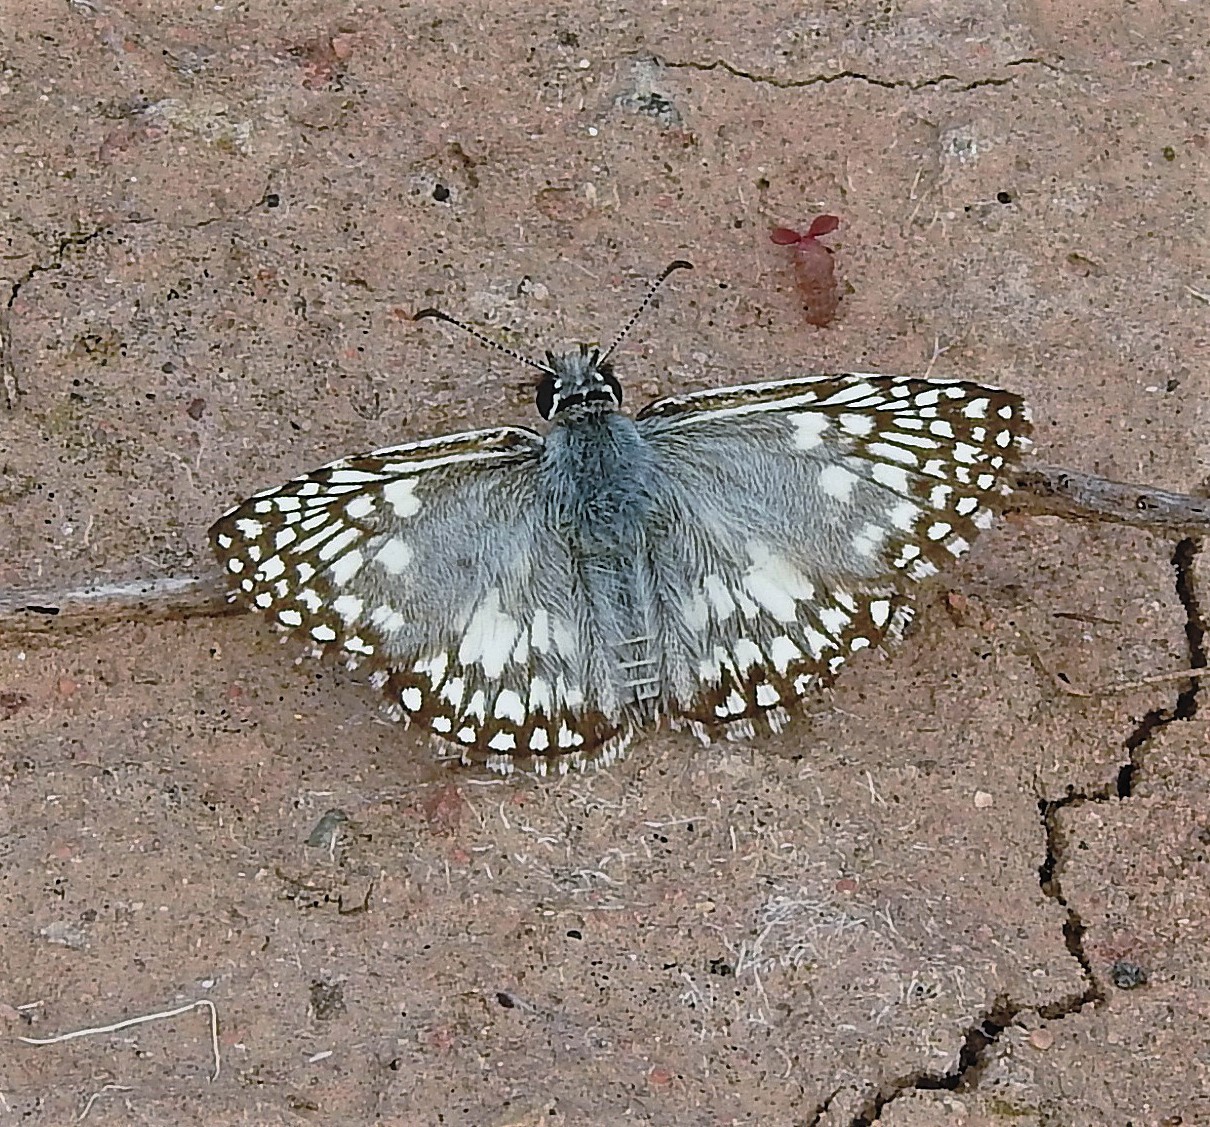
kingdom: Animalia
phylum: Arthropoda
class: Insecta
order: Lepidoptera
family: Hesperiidae
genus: Pyrgus
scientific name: Pyrgus oileus
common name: Tropical checkered-skipper
